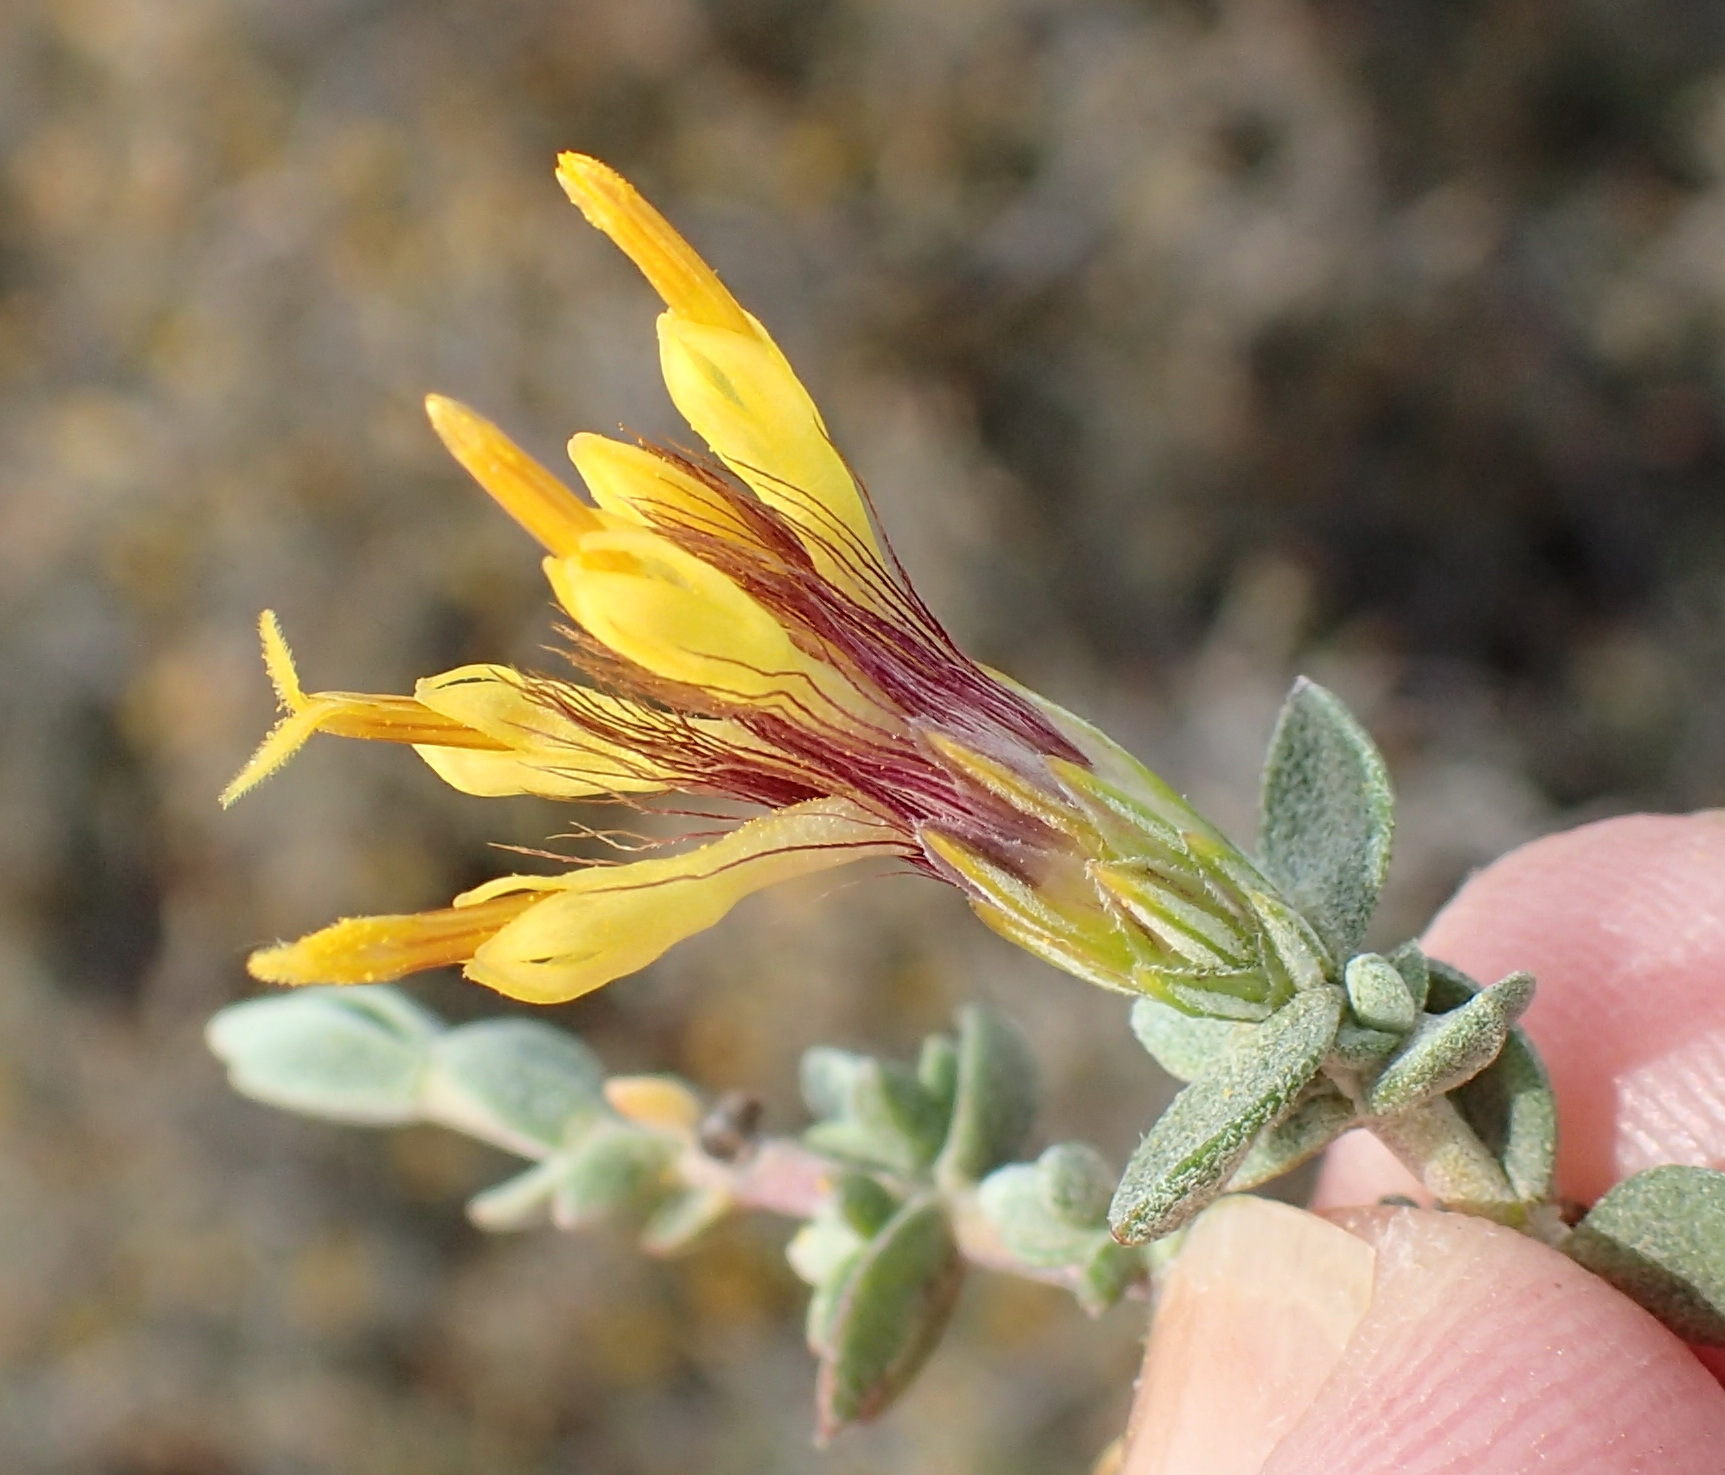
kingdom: Plantae
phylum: Tracheophyta
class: Magnoliopsida
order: Asterales
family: Asteraceae
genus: Pteronia
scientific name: Pteronia erythrochaeta
